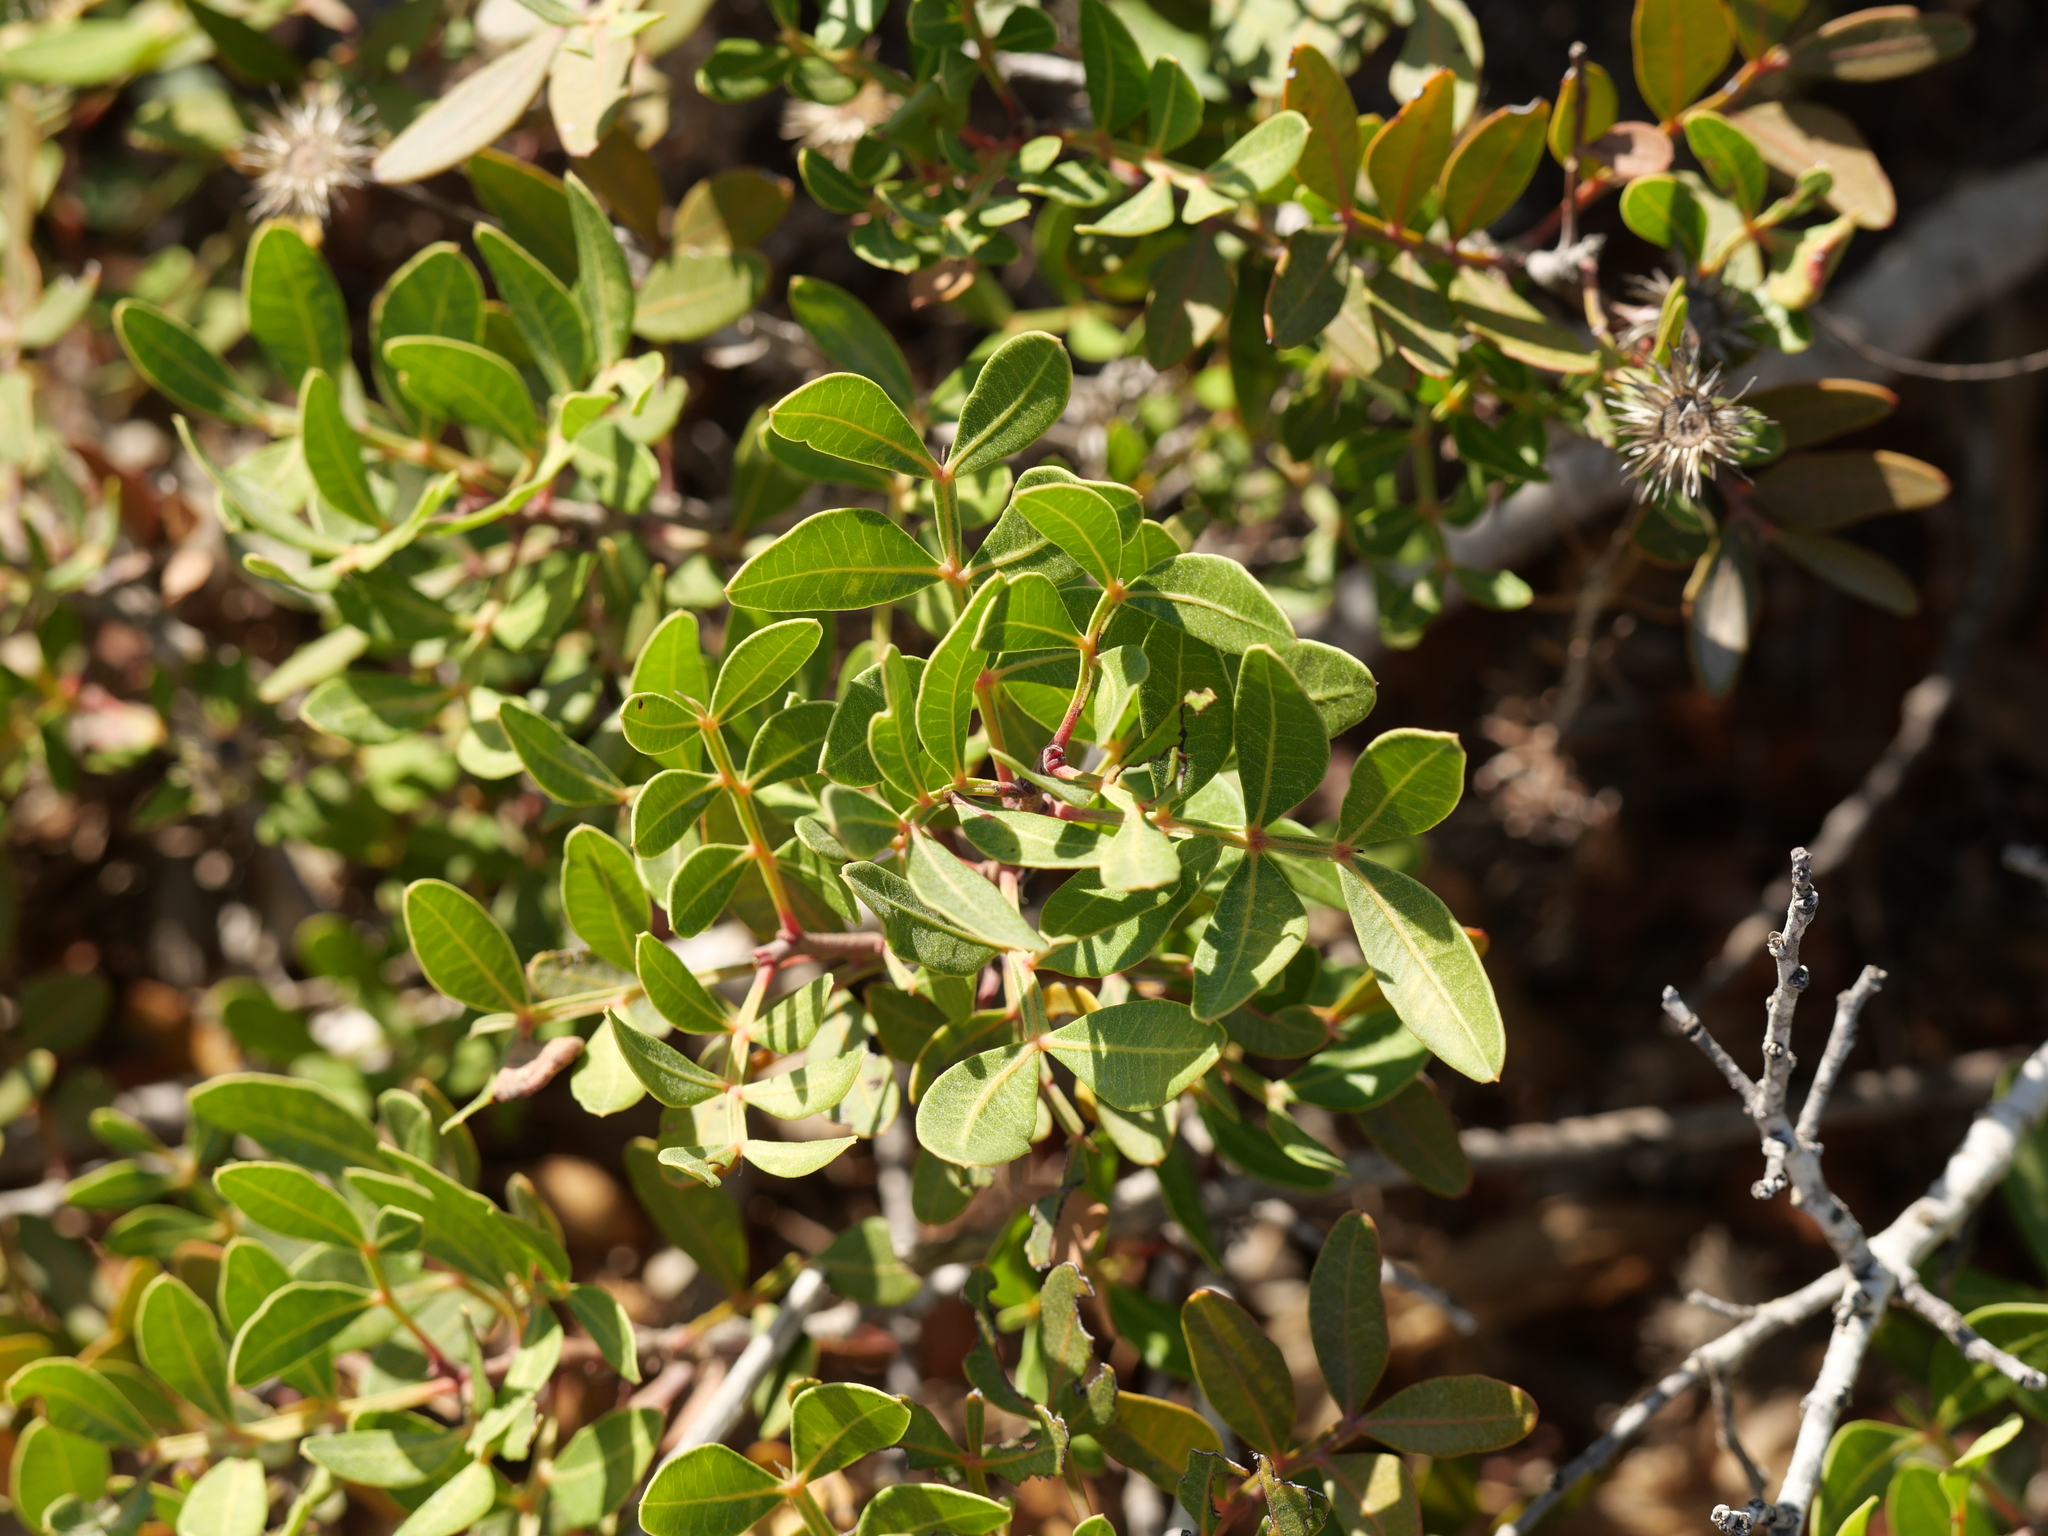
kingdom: Plantae
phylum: Tracheophyta
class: Magnoliopsida
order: Sapindales
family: Anacardiaceae
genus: Pistacia
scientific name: Pistacia lentiscus
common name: Lentisk
